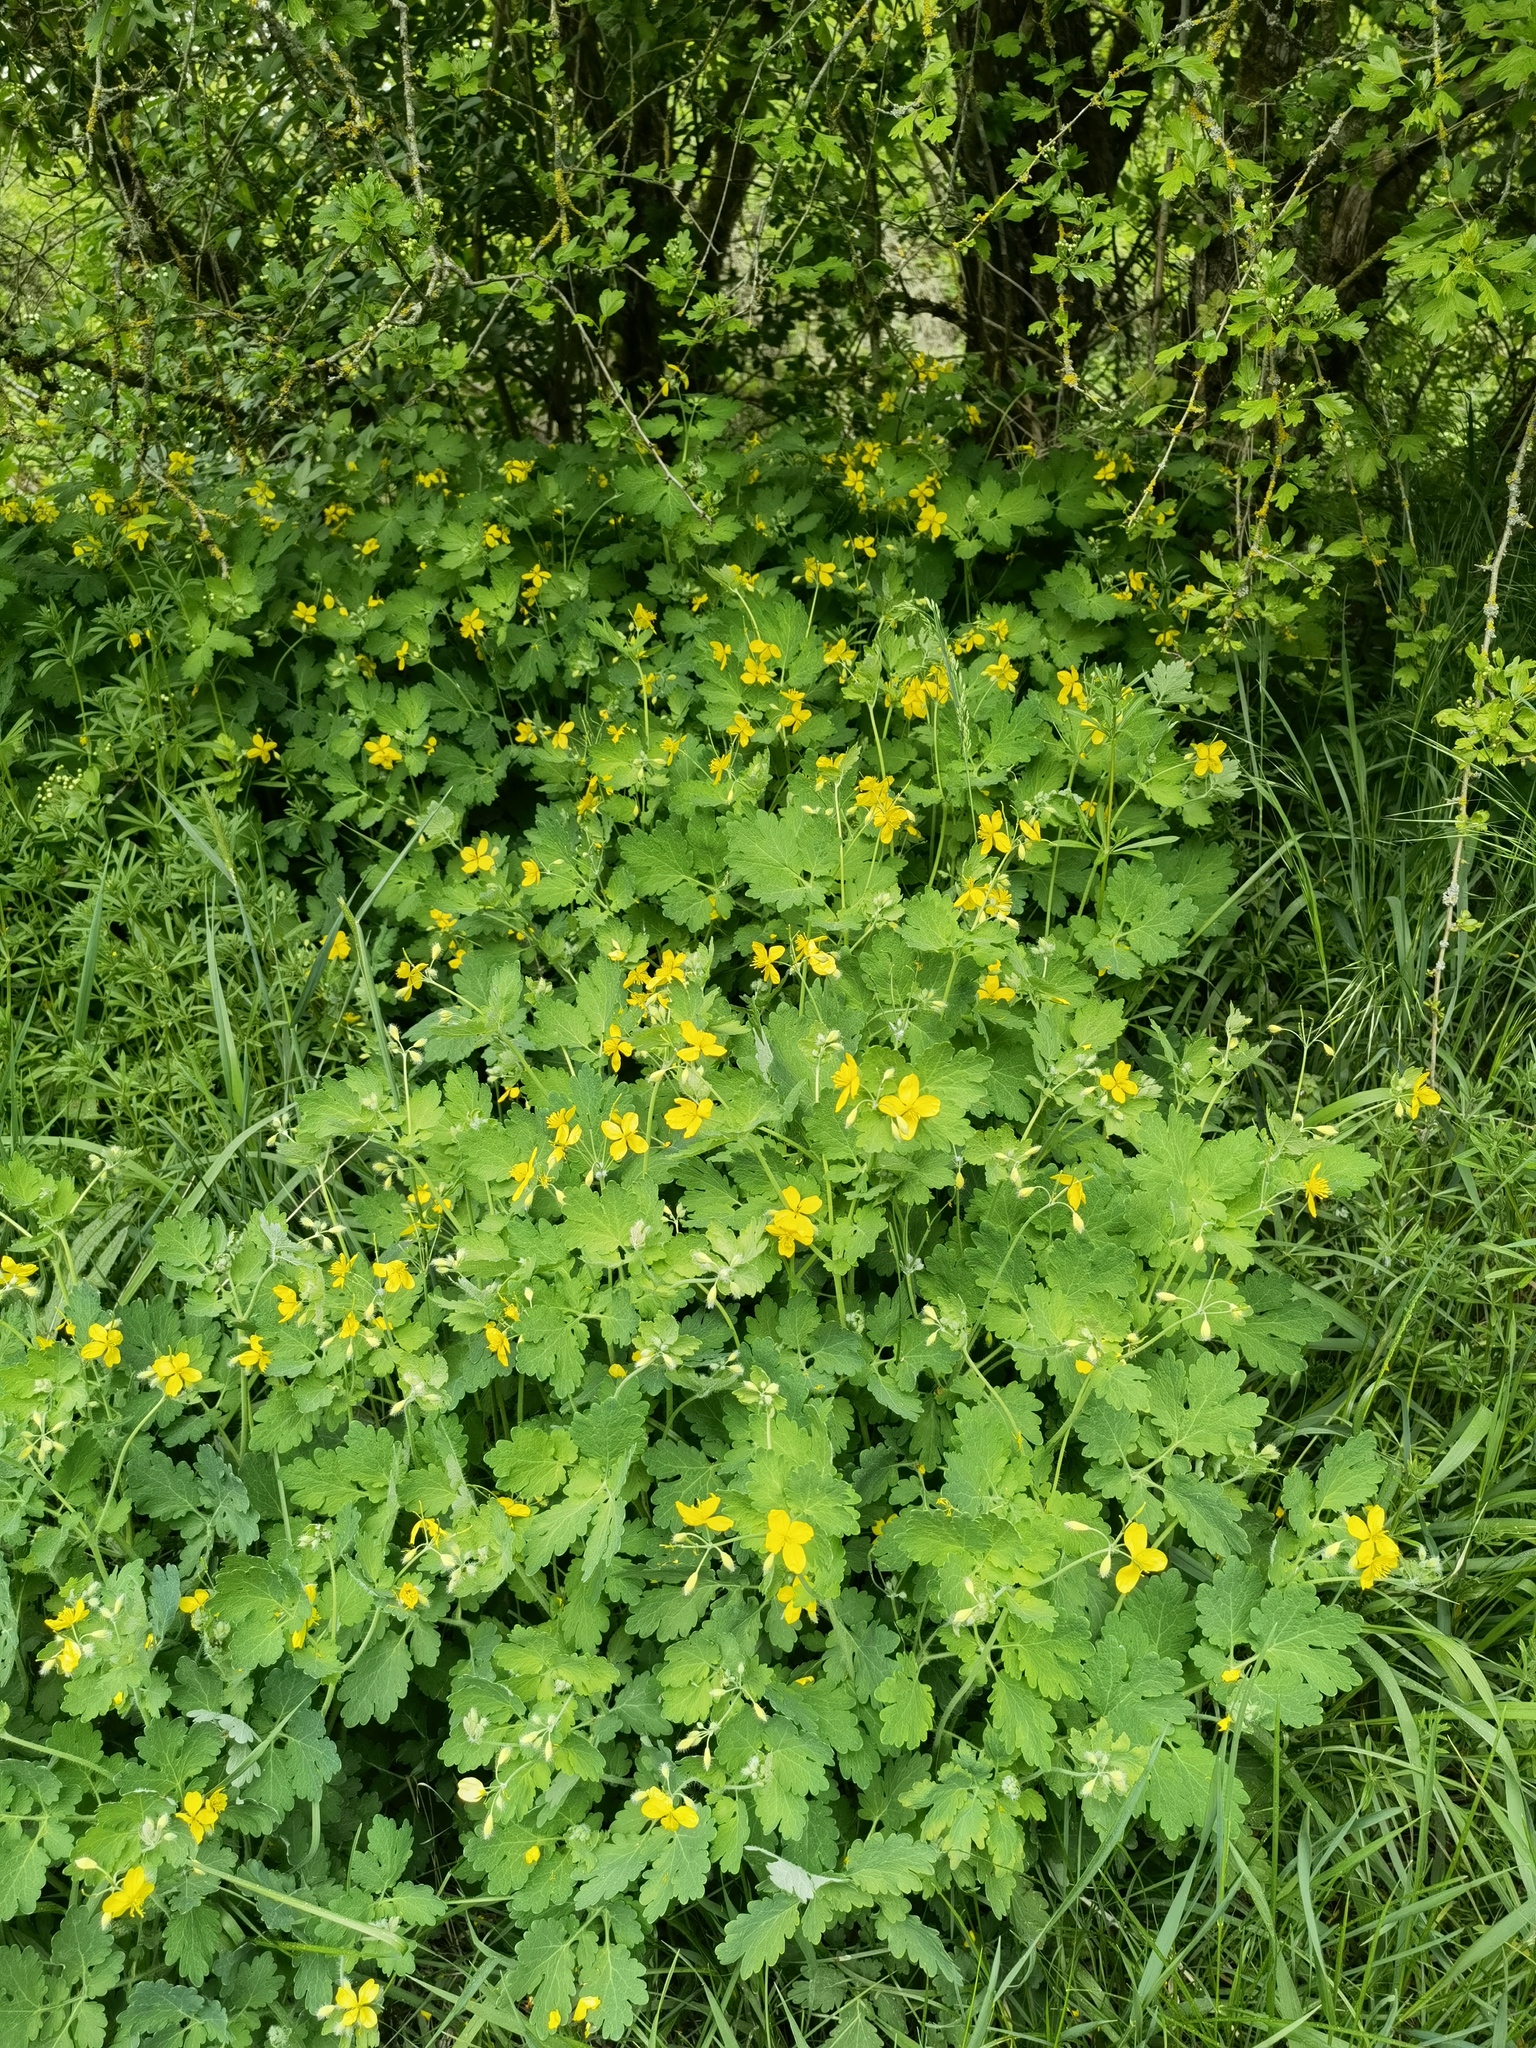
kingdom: Plantae
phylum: Tracheophyta
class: Magnoliopsida
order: Ranunculales
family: Papaveraceae
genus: Chelidonium
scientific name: Chelidonium majus
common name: Greater celandine
